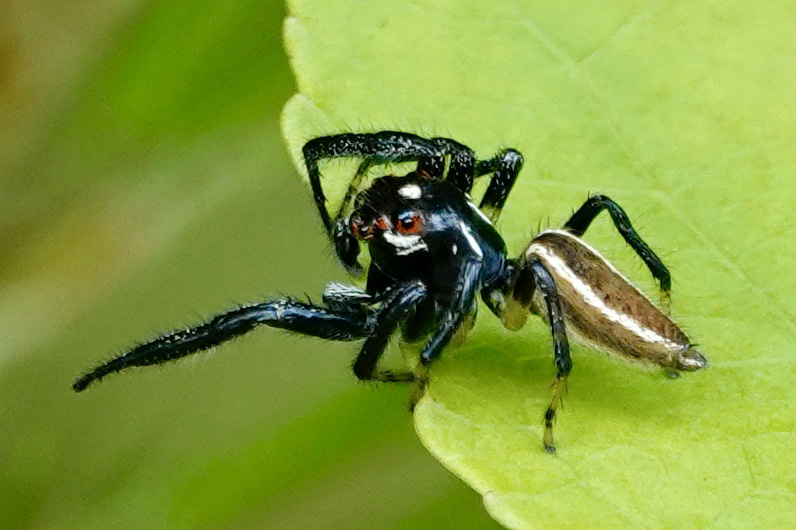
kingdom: Animalia
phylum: Arthropoda
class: Arachnida
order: Araneae
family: Salticidae
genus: Colonus
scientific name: Colonus sylvanus
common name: Jumping spiders
